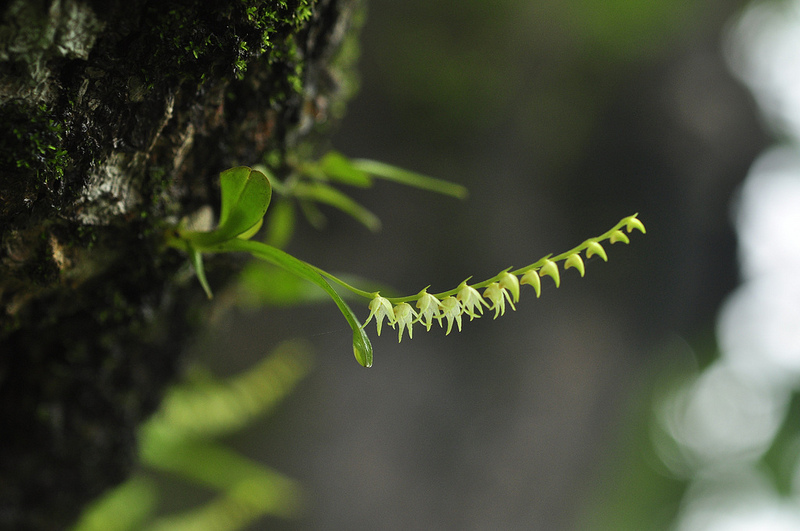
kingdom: Plantae
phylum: Tracheophyta
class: Liliopsida
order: Asparagales
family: Orchidaceae
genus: Porpax
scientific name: Porpax filiformis
